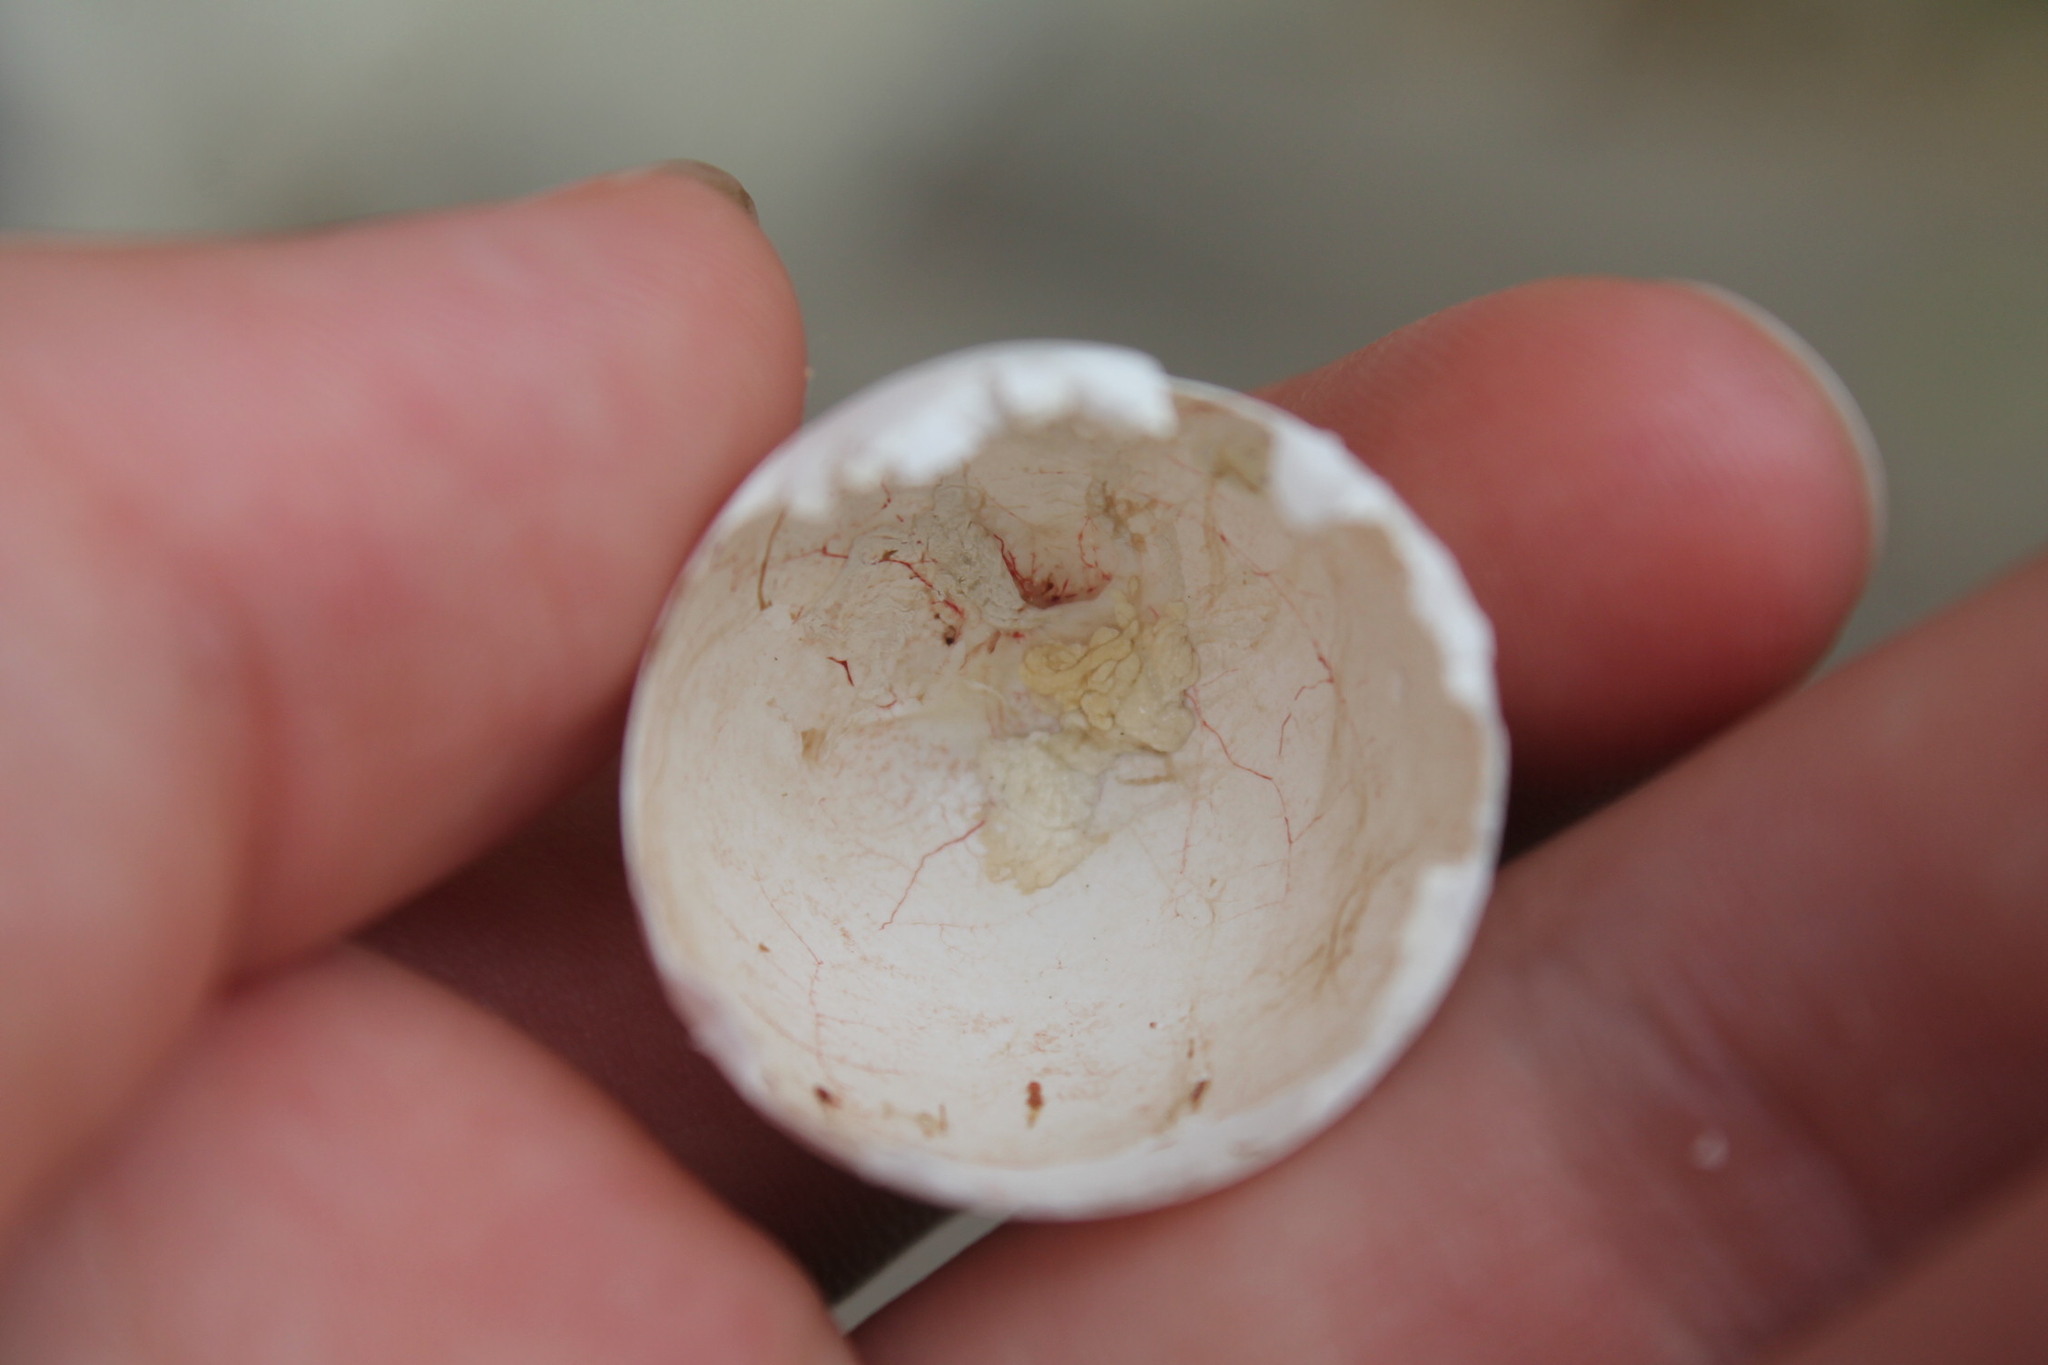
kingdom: Animalia
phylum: Chordata
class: Aves
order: Columbiformes
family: Columbidae
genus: Zenaida
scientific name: Zenaida macroura
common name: Mourning dove
